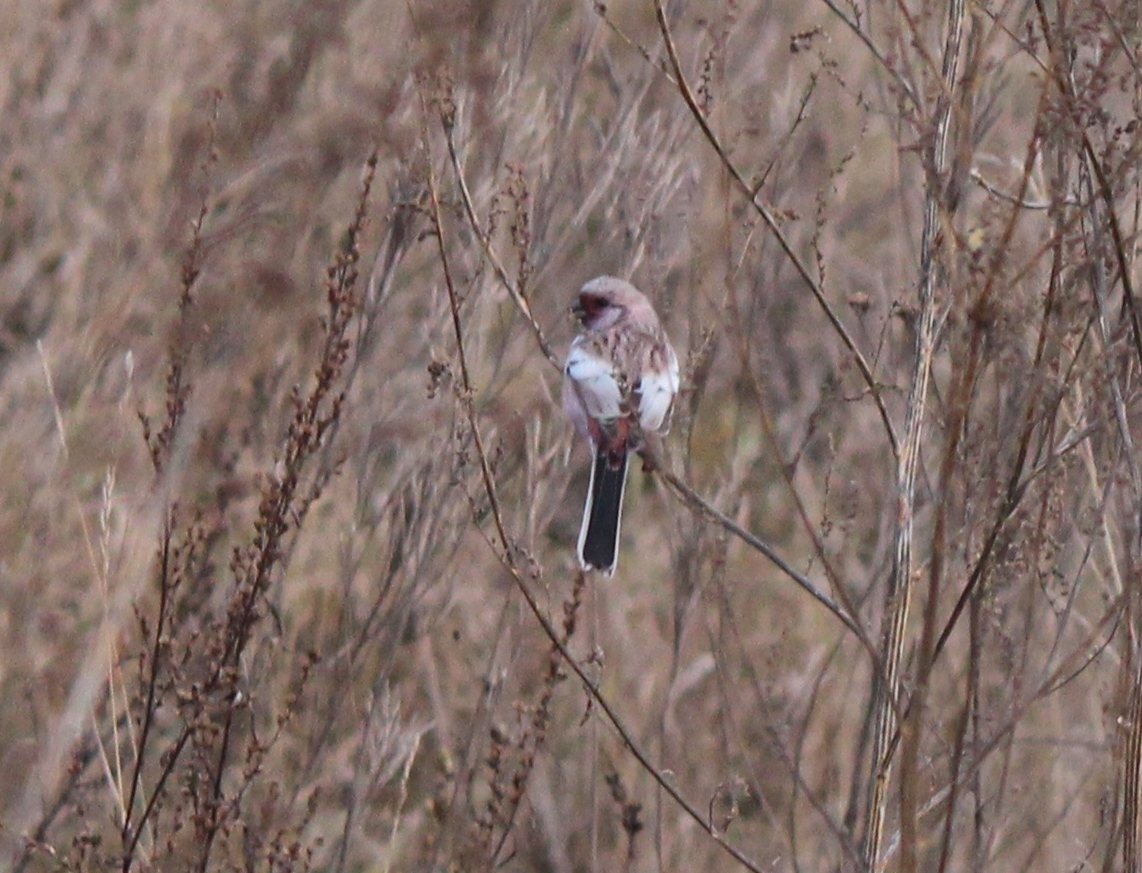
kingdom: Animalia
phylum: Chordata
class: Aves
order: Passeriformes
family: Fringillidae
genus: Carpodacus
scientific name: Carpodacus sibiricus
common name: Long-tailed rosefinch
